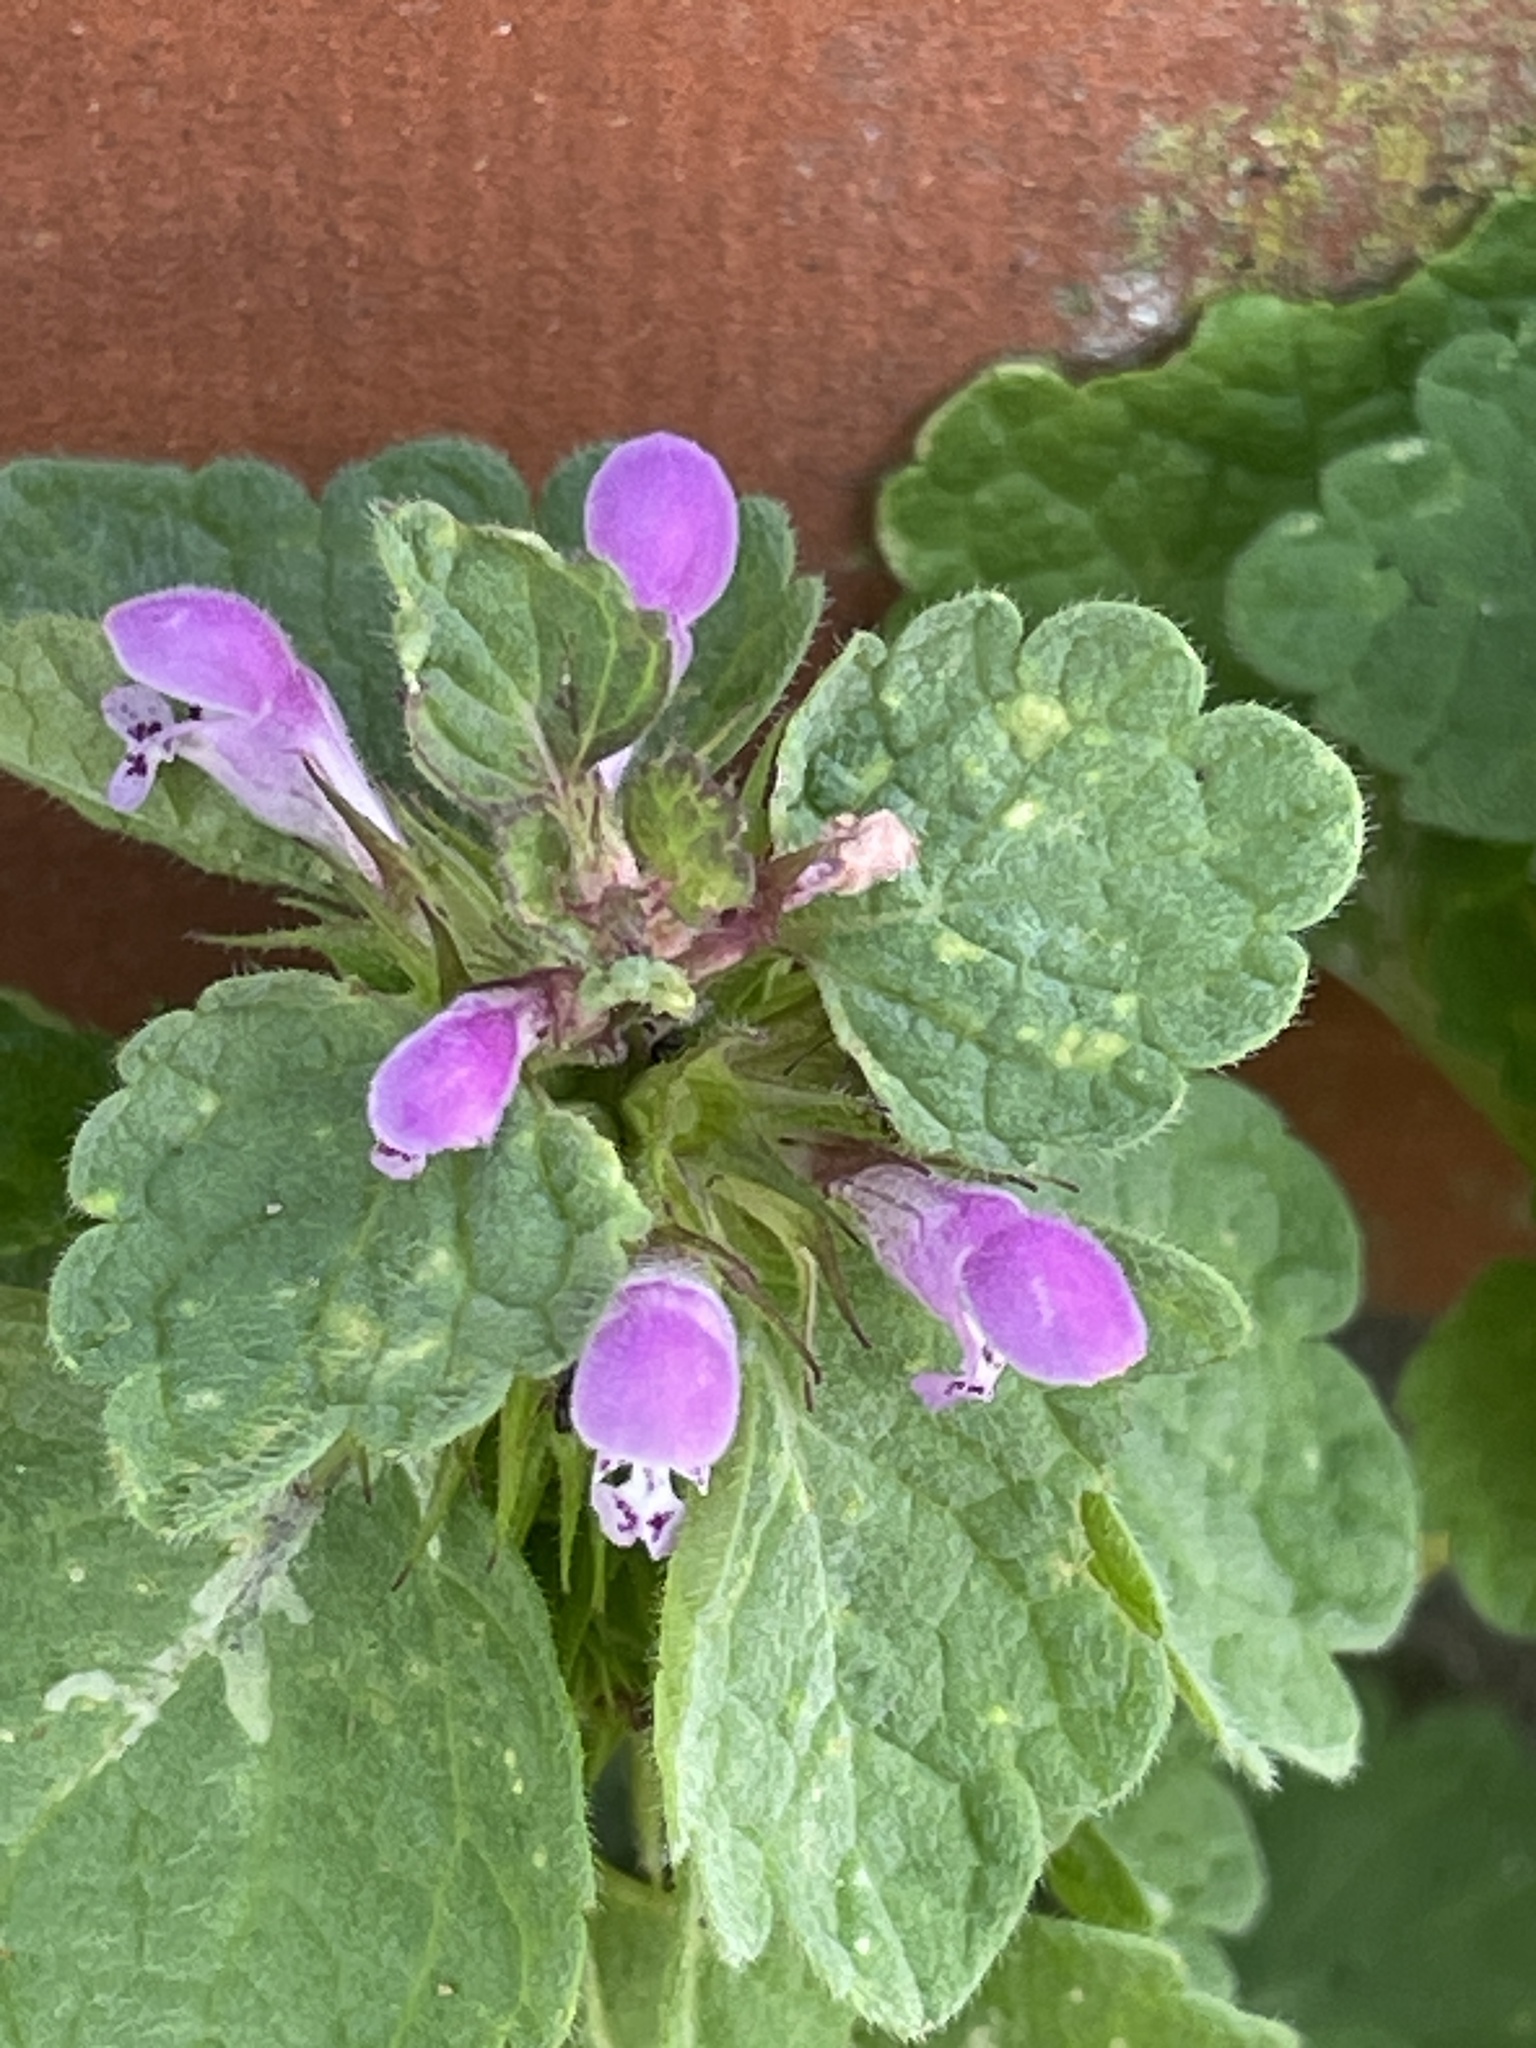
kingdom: Plantae
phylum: Tracheophyta
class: Magnoliopsida
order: Lamiales
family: Lamiaceae
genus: Lamium
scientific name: Lamium purpureum
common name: Red dead-nettle
